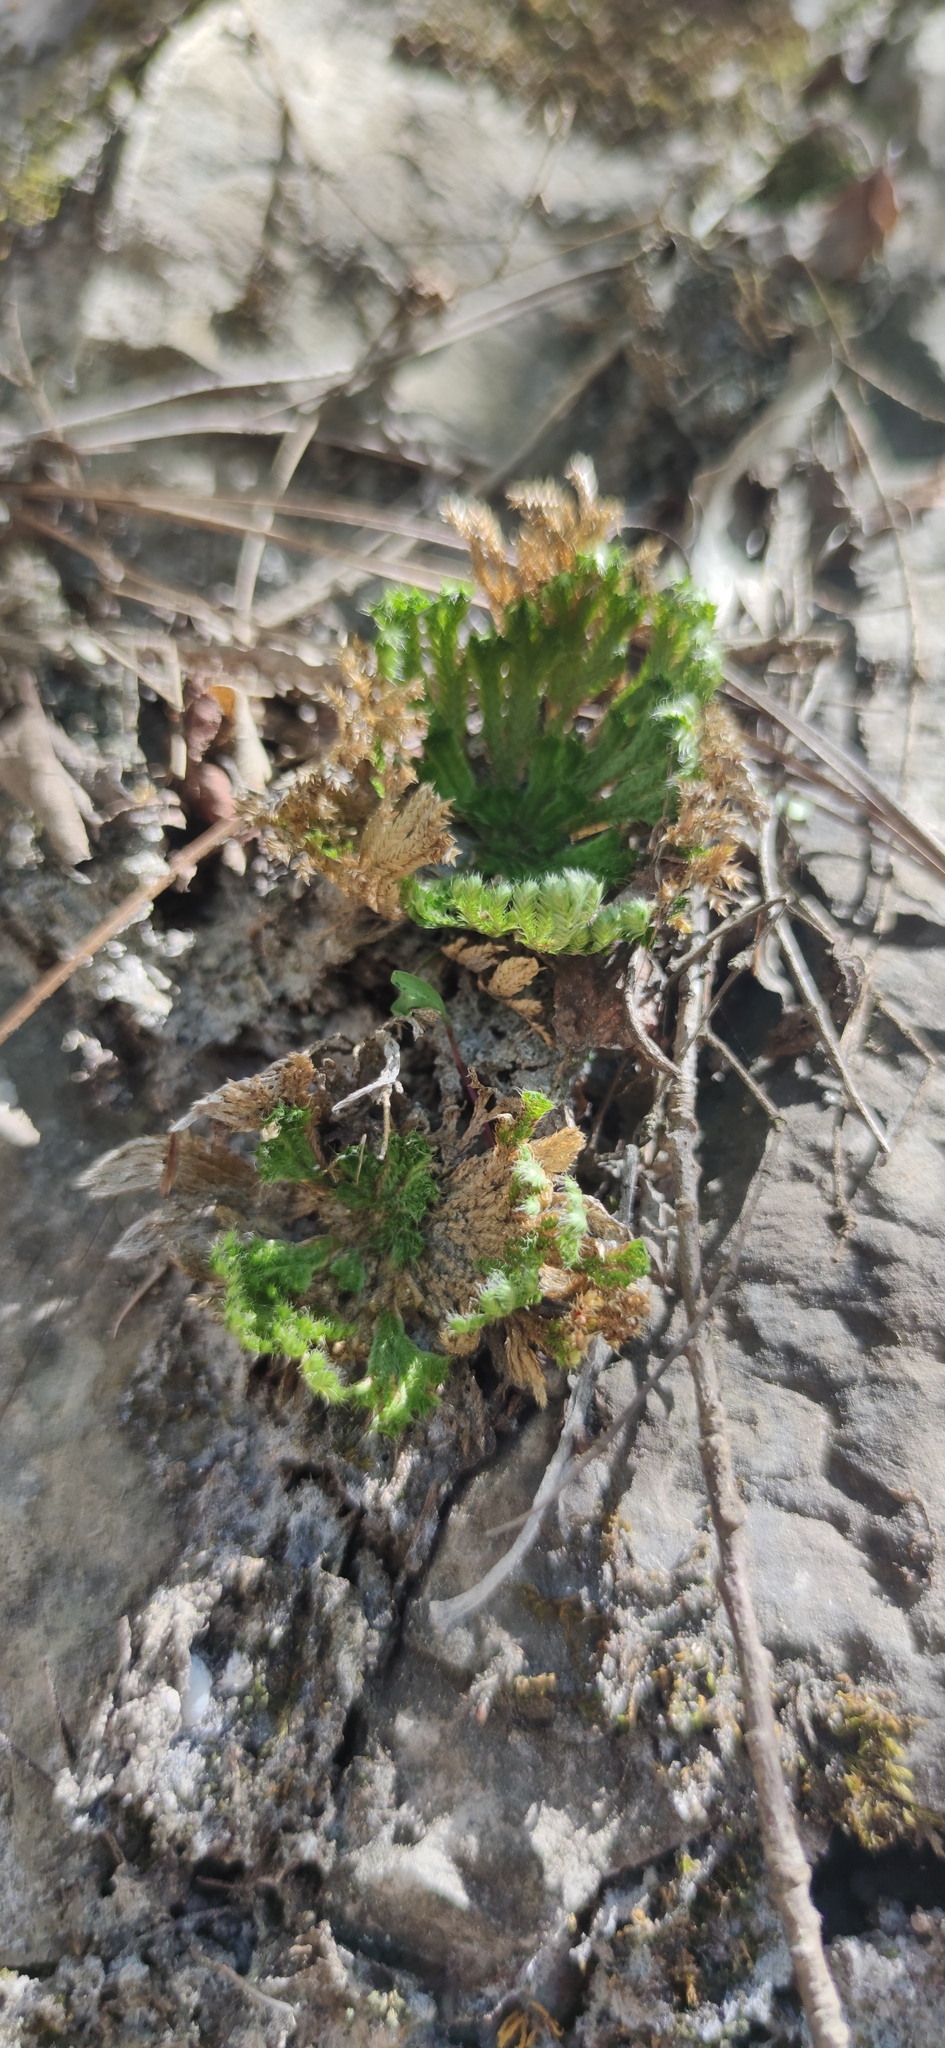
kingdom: Plantae
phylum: Tracheophyta
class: Lycopodiopsida
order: Selaginellales
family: Selaginellaceae
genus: Selaginella
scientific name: Selaginella pilifera
